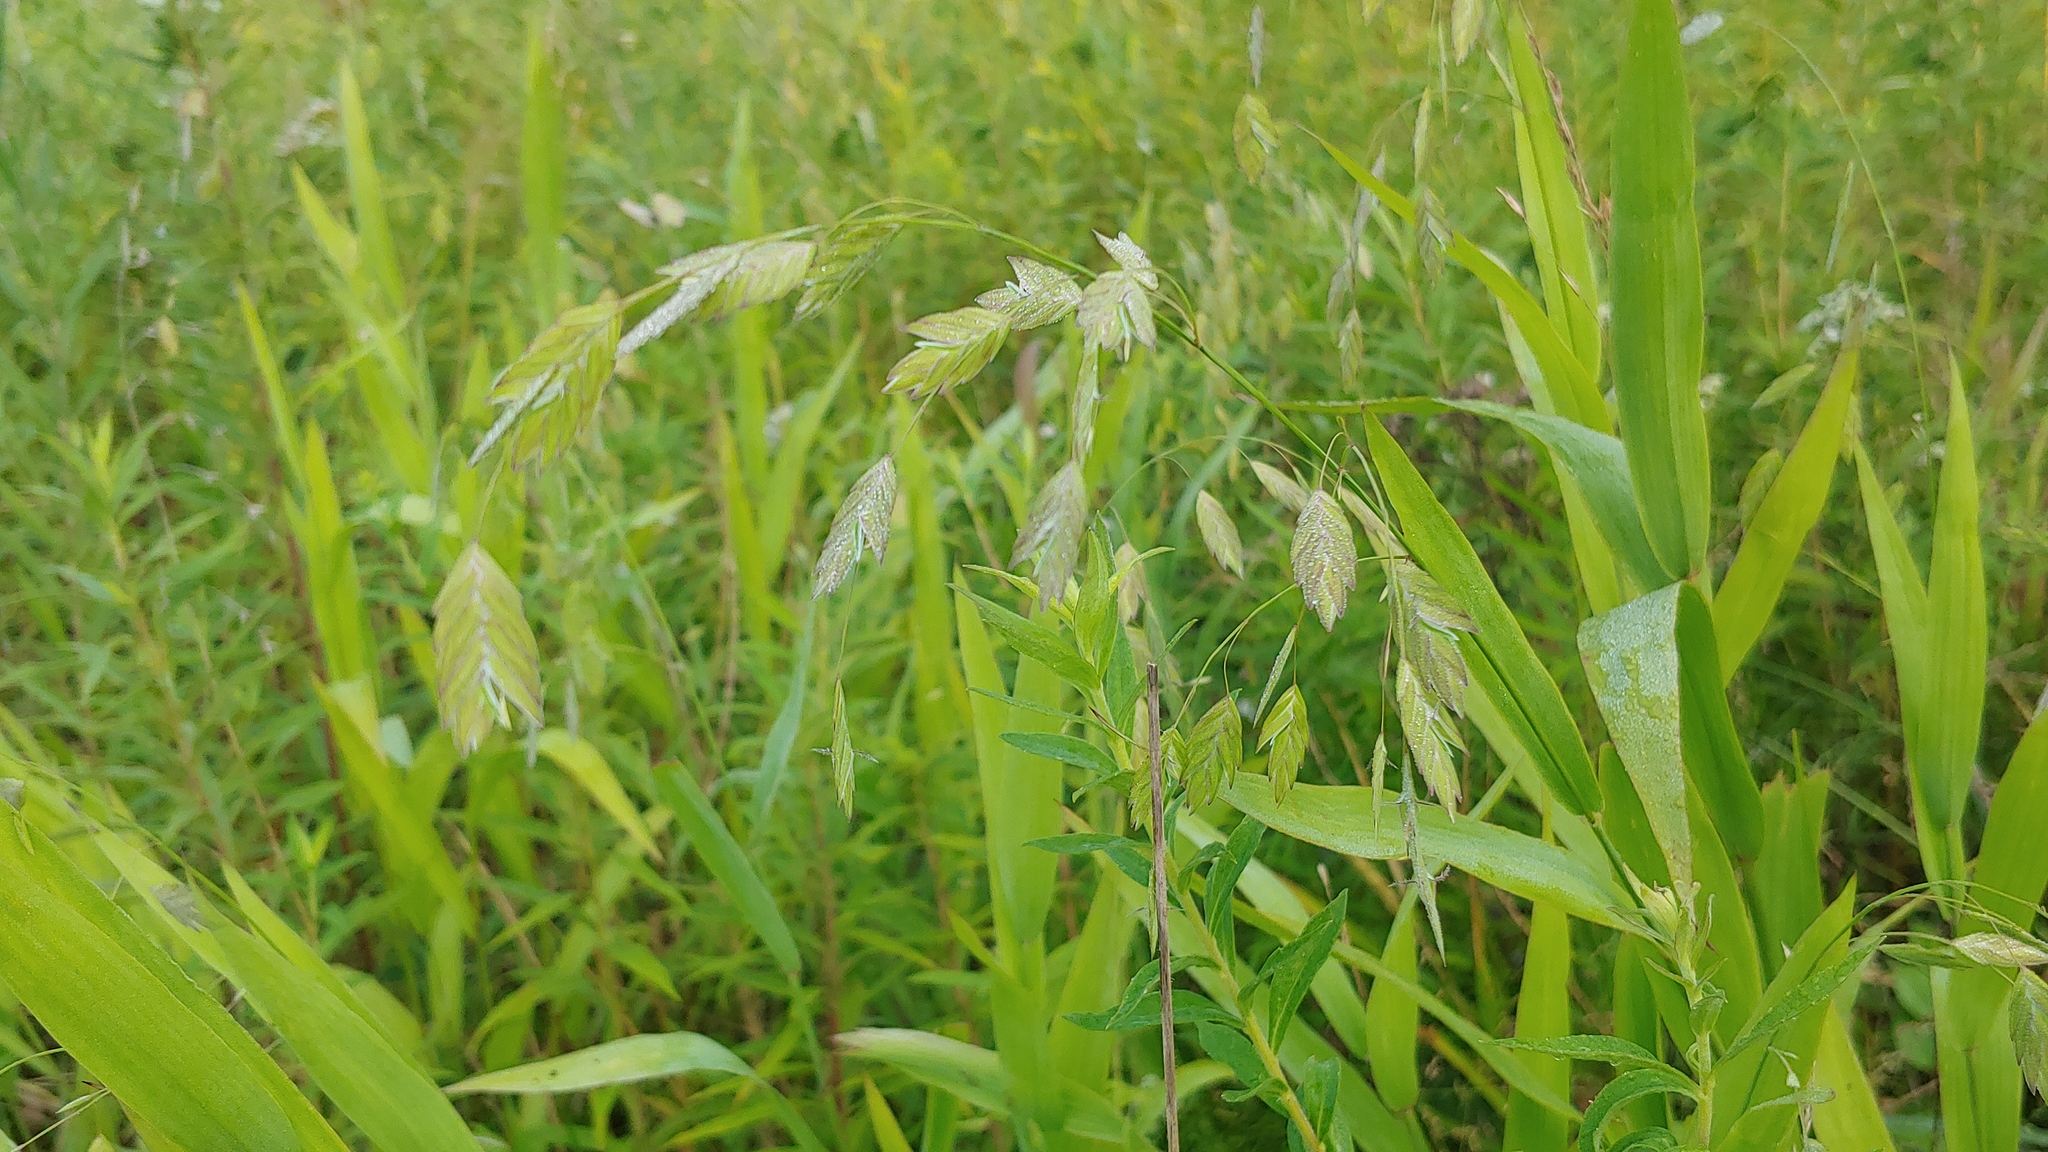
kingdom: Plantae
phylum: Tracheophyta
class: Liliopsida
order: Poales
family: Poaceae
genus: Chasmanthium
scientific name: Chasmanthium latifolium
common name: Broad-leaved chasmanthium
